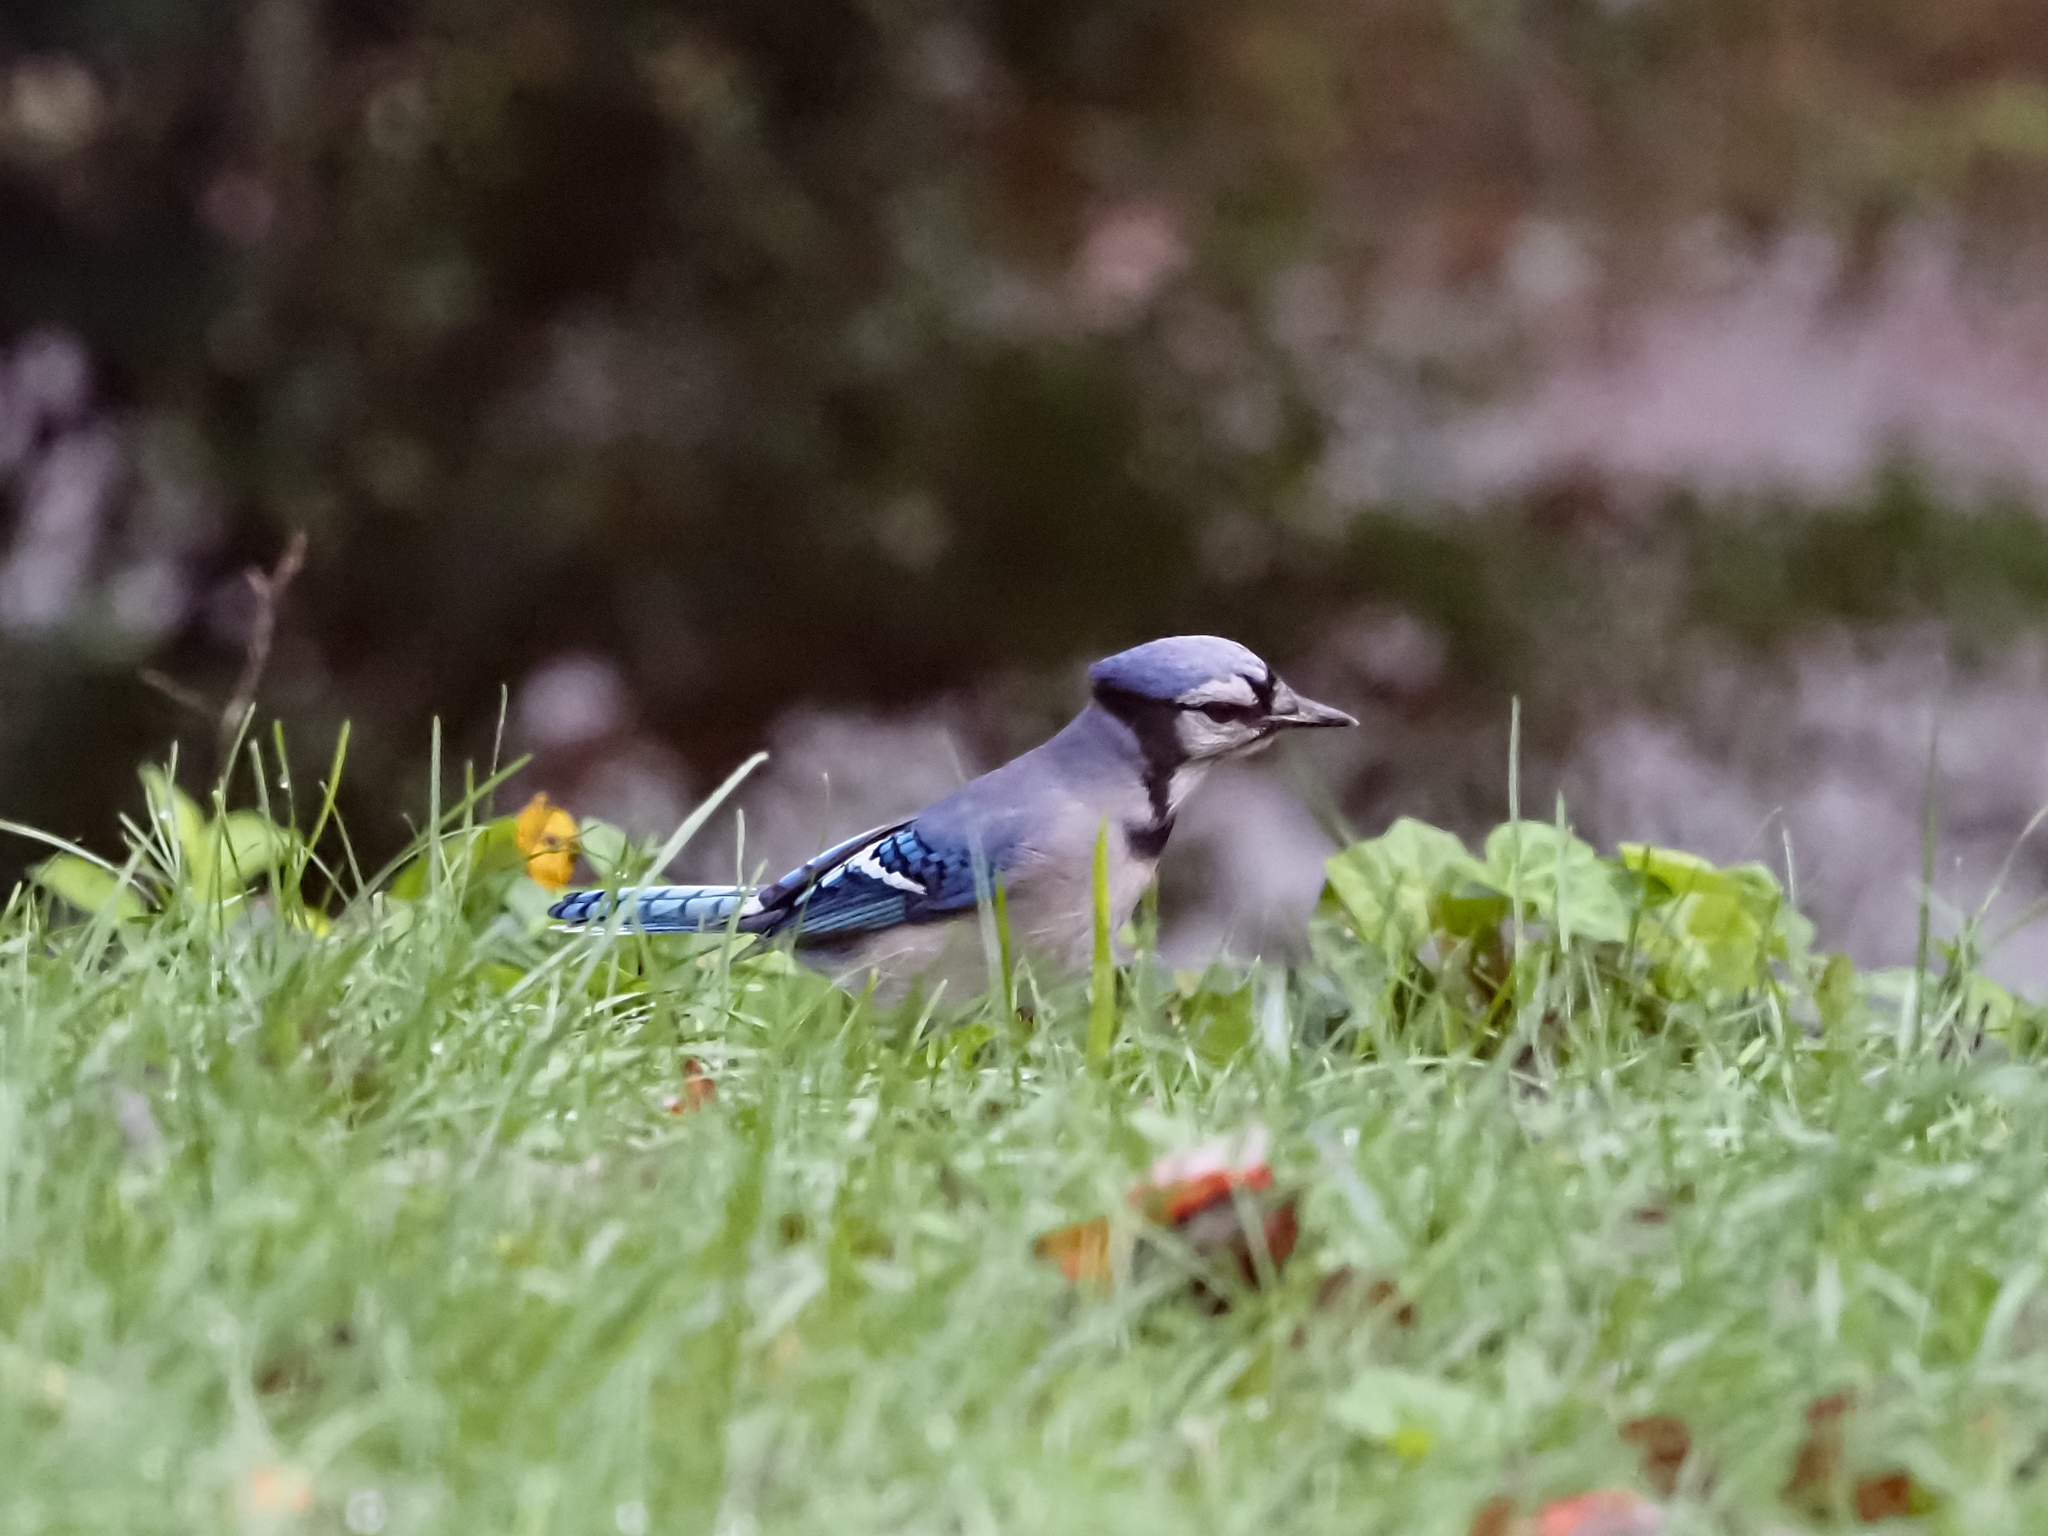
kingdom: Animalia
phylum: Chordata
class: Aves
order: Passeriformes
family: Corvidae
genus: Cyanocitta
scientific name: Cyanocitta cristata
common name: Blue jay
